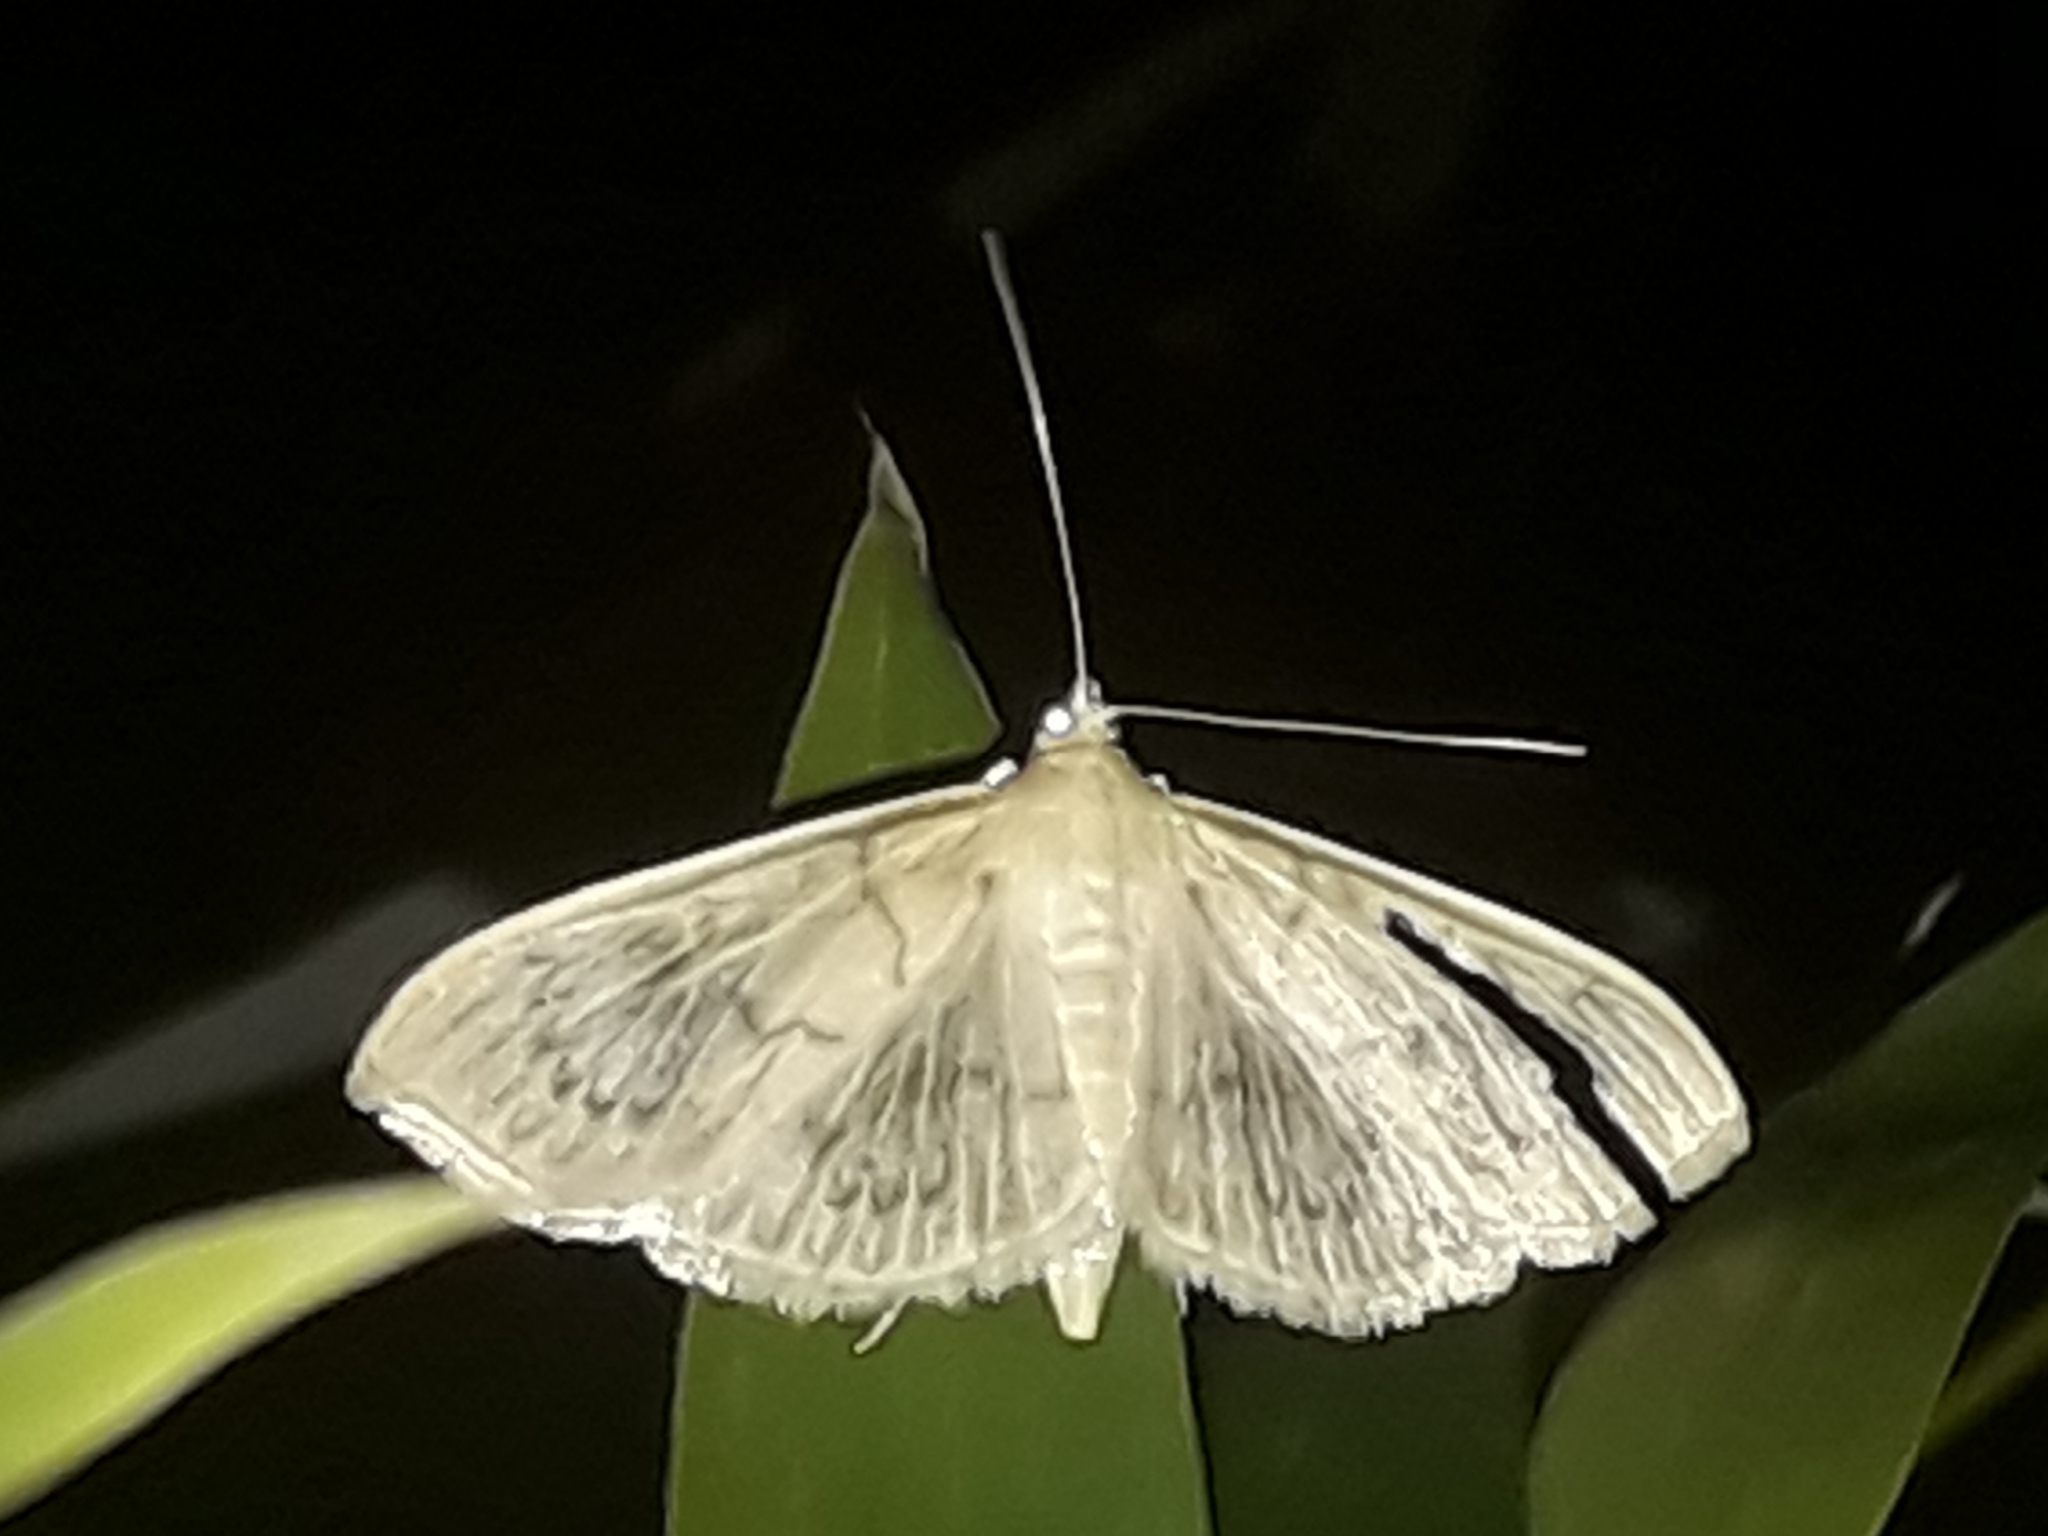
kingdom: Animalia
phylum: Arthropoda
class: Insecta
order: Lepidoptera
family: Crambidae
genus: Patania
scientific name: Patania ruralis
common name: Mother of pearl
